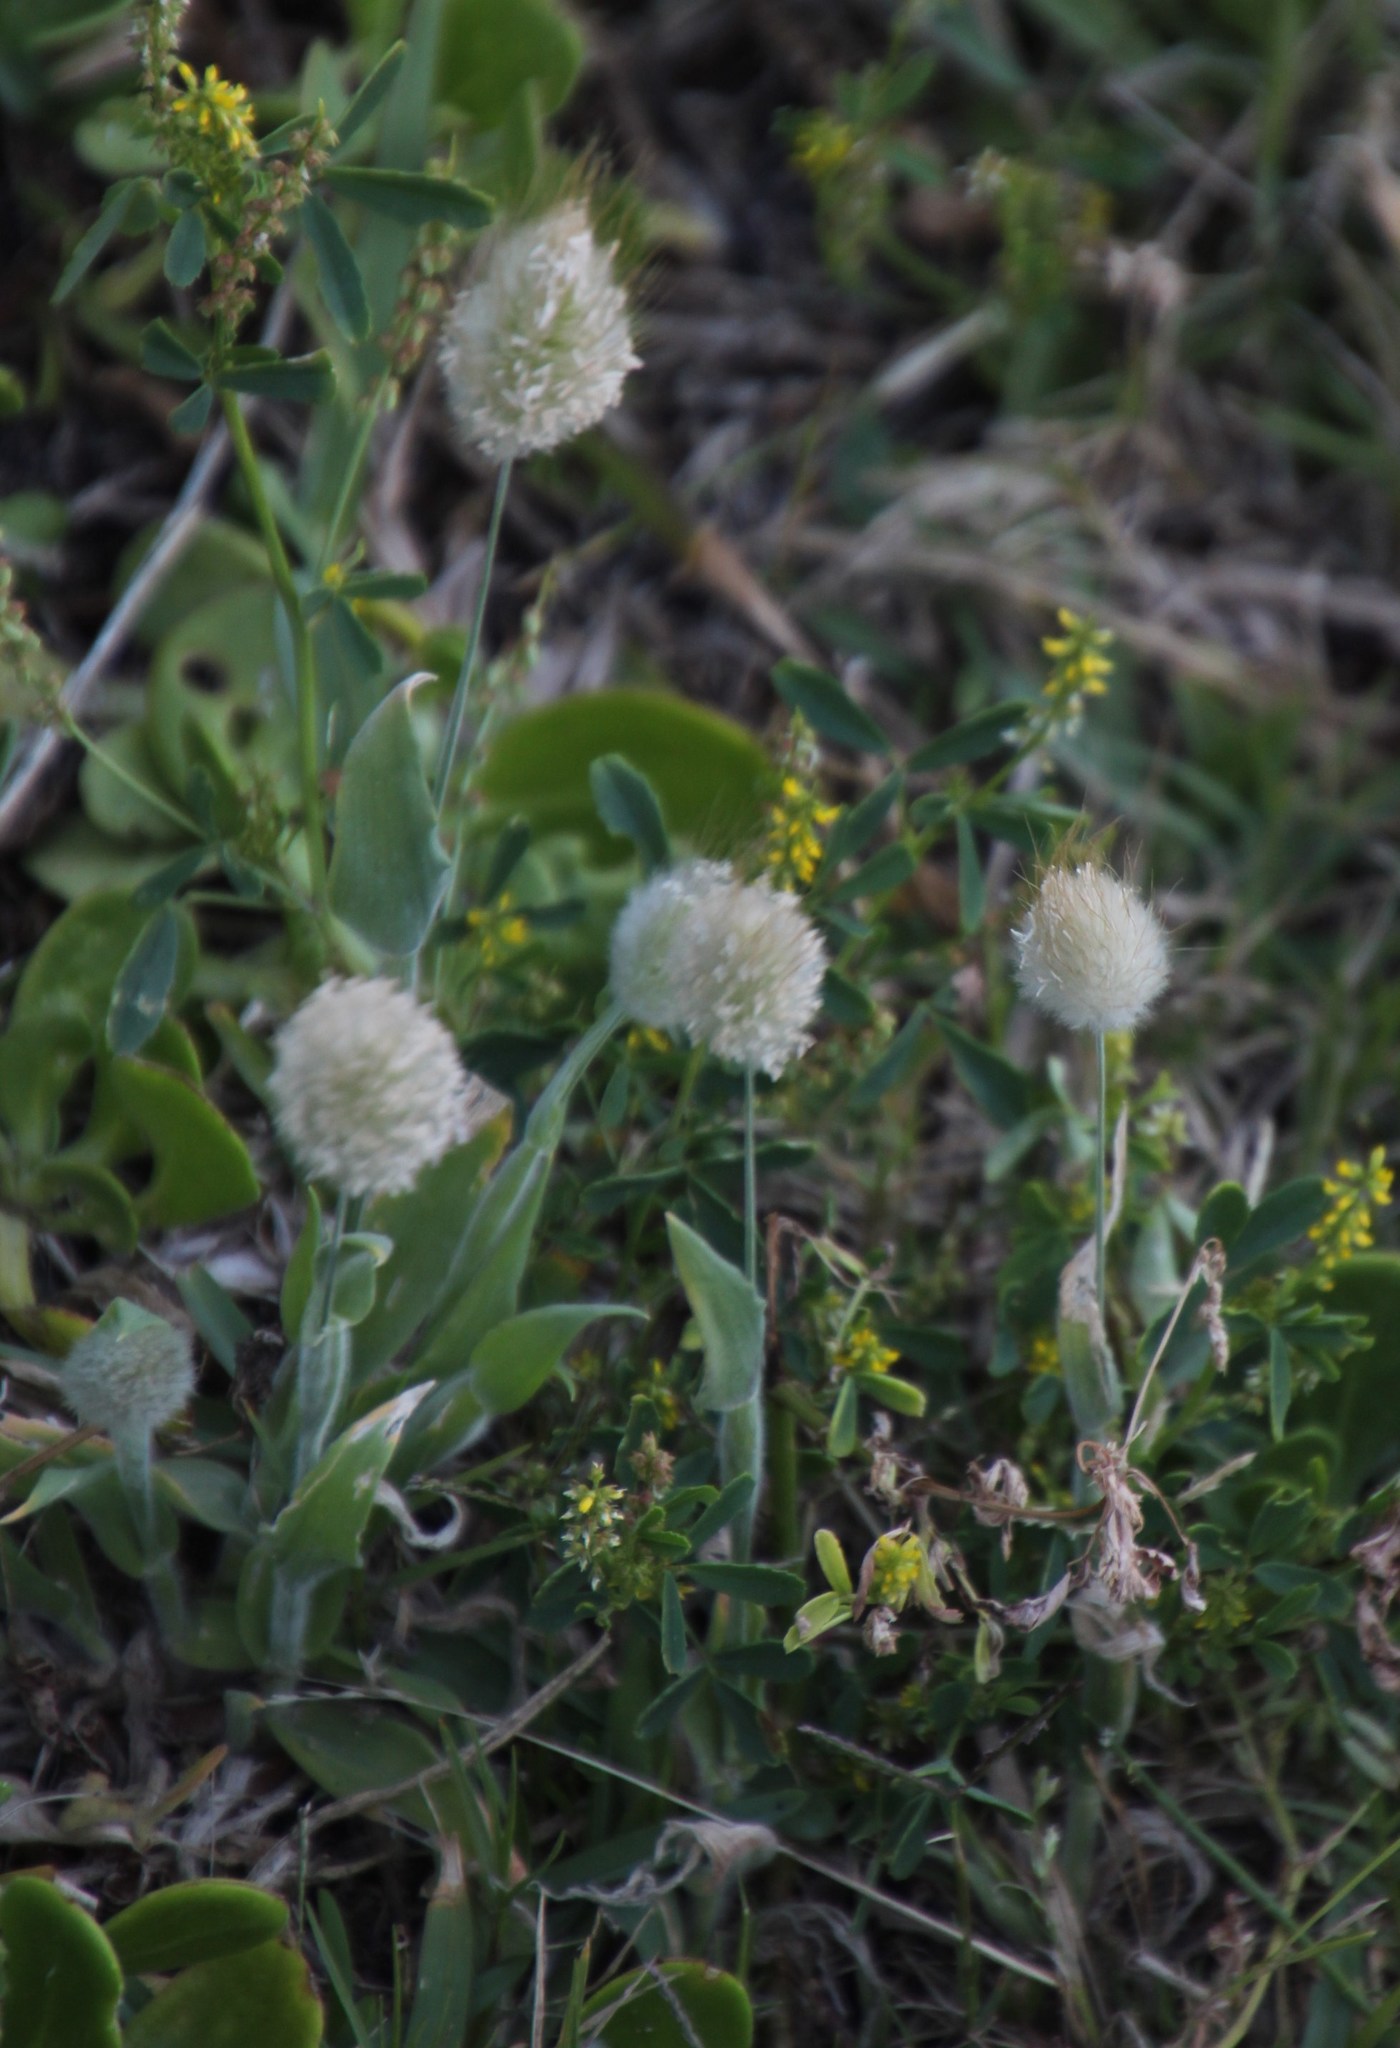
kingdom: Plantae
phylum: Tracheophyta
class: Liliopsida
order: Poales
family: Poaceae
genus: Lagurus
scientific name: Lagurus ovatus
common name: Hare's-tail
